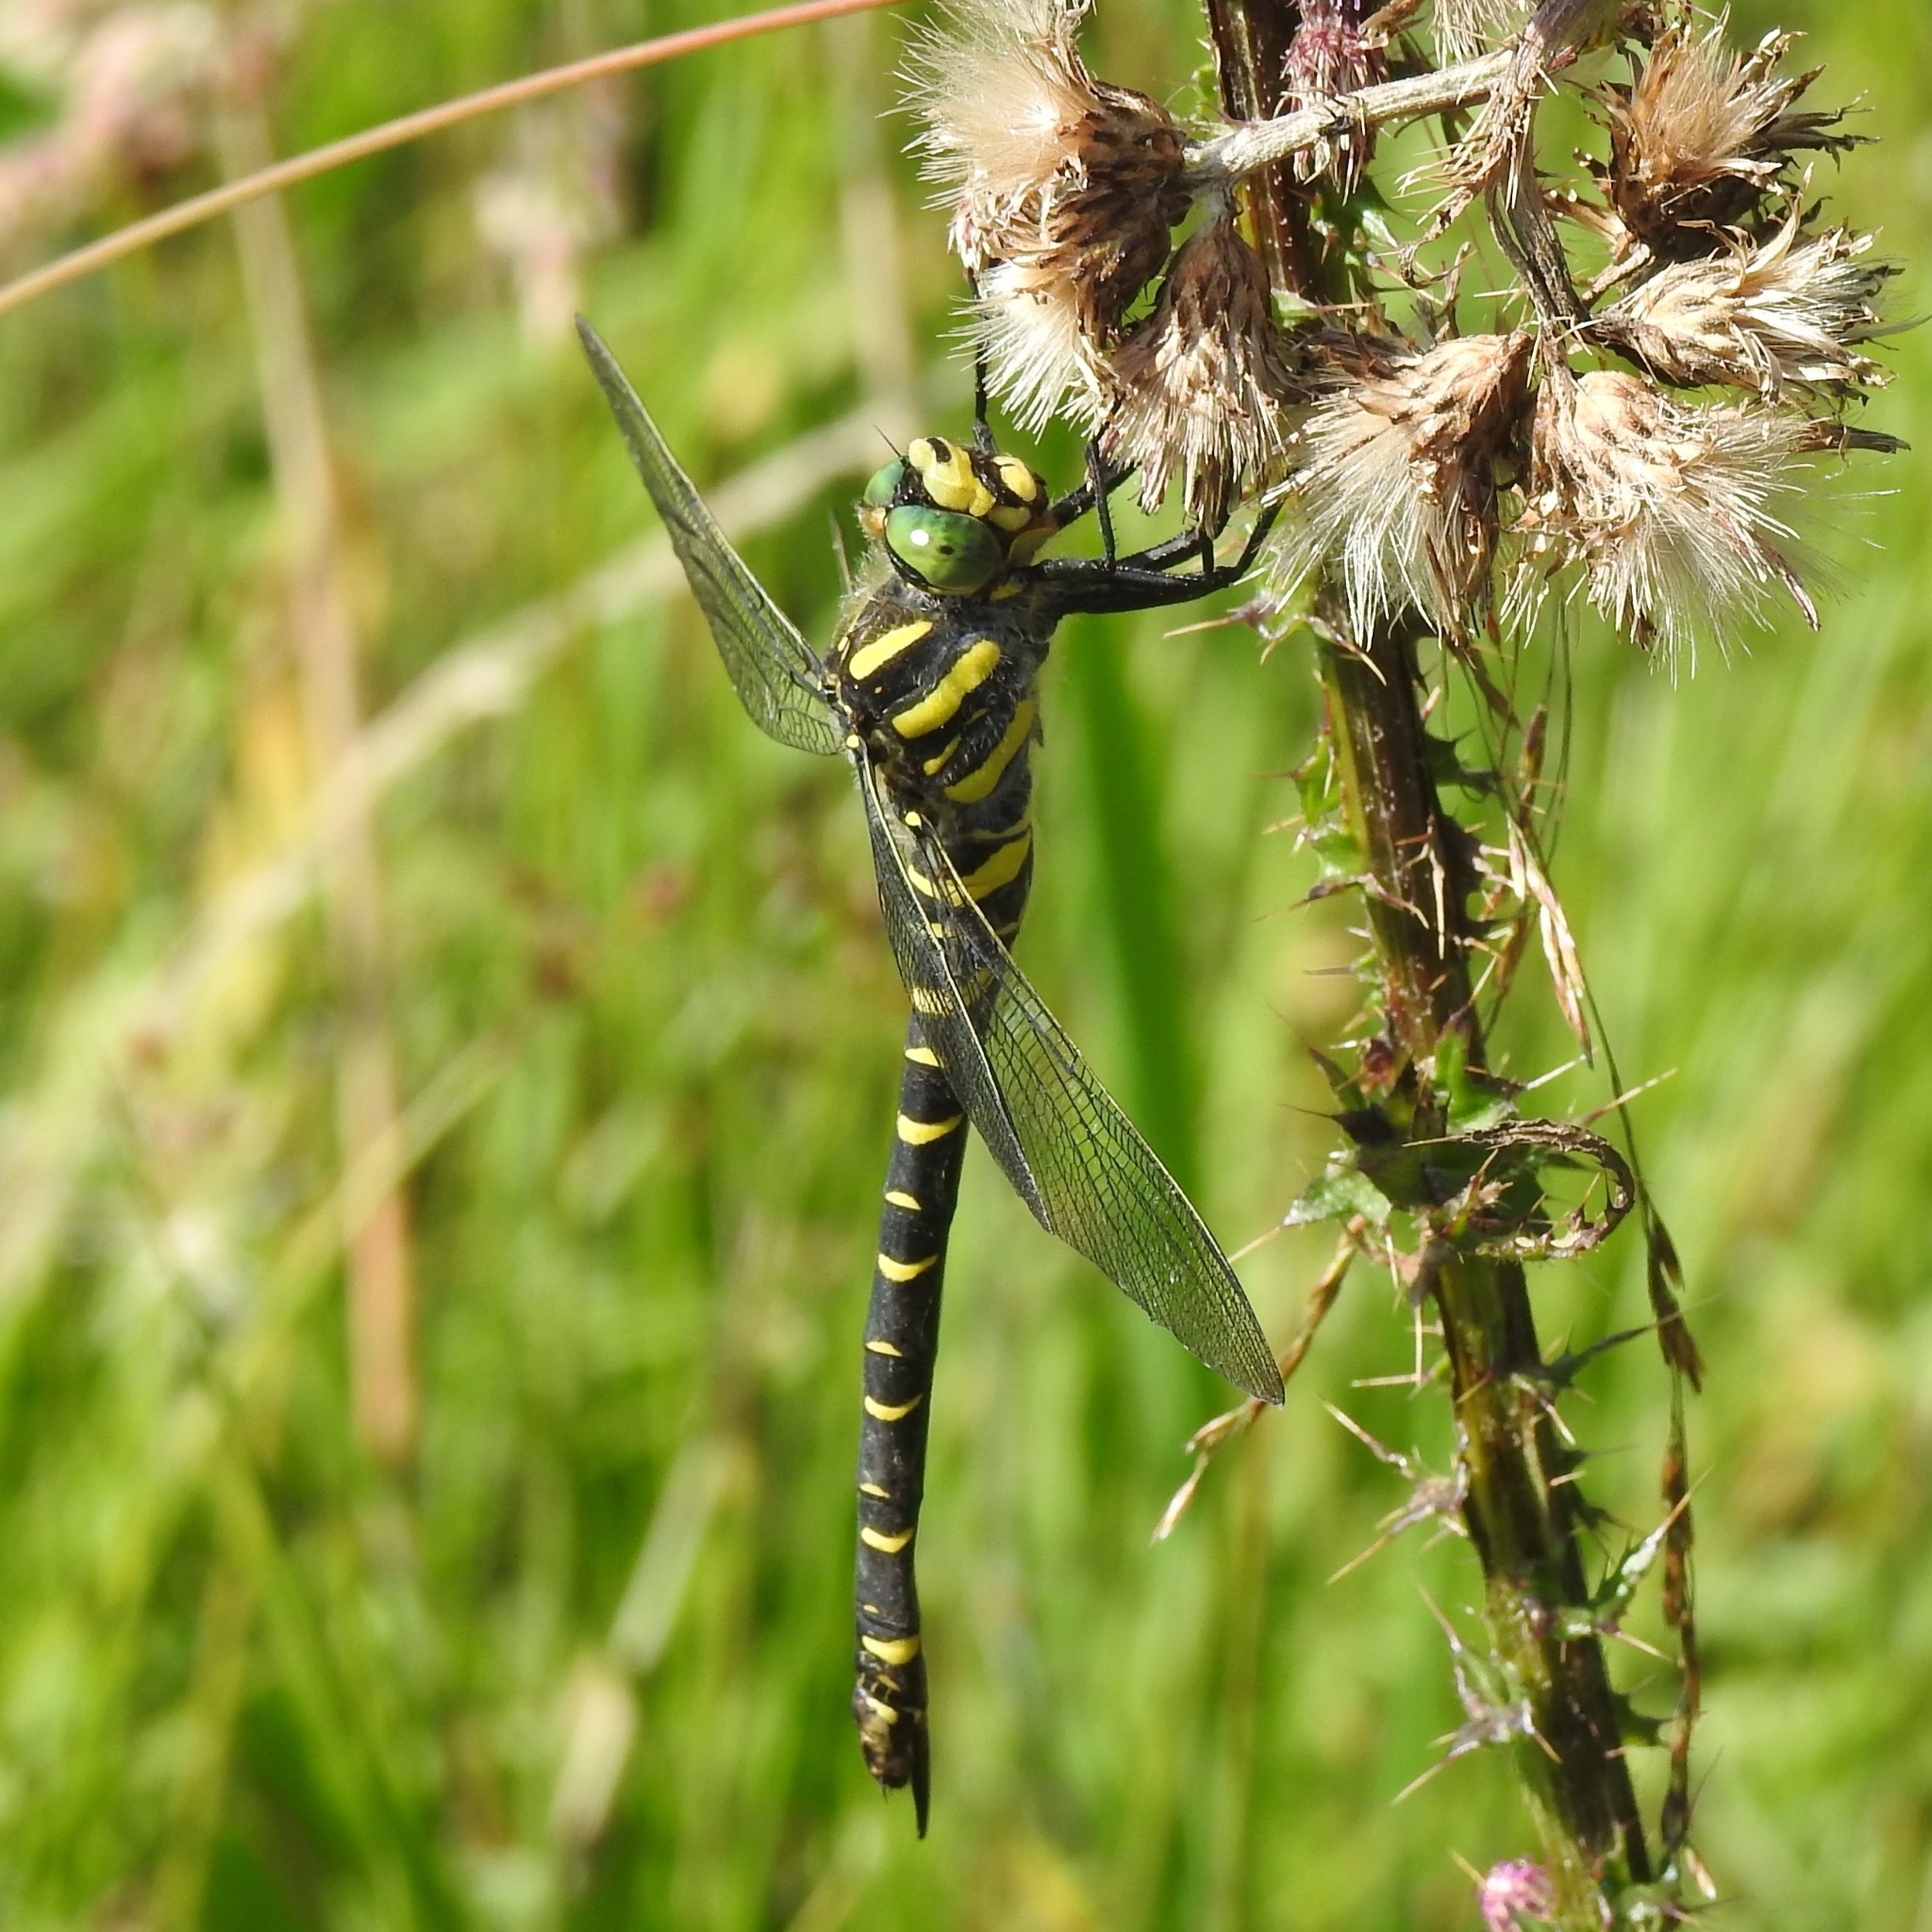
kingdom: Animalia
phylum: Arthropoda
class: Insecta
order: Odonata
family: Cordulegastridae
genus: Cordulegaster
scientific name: Cordulegaster boltonii
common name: Golden-ringed dragonfly
